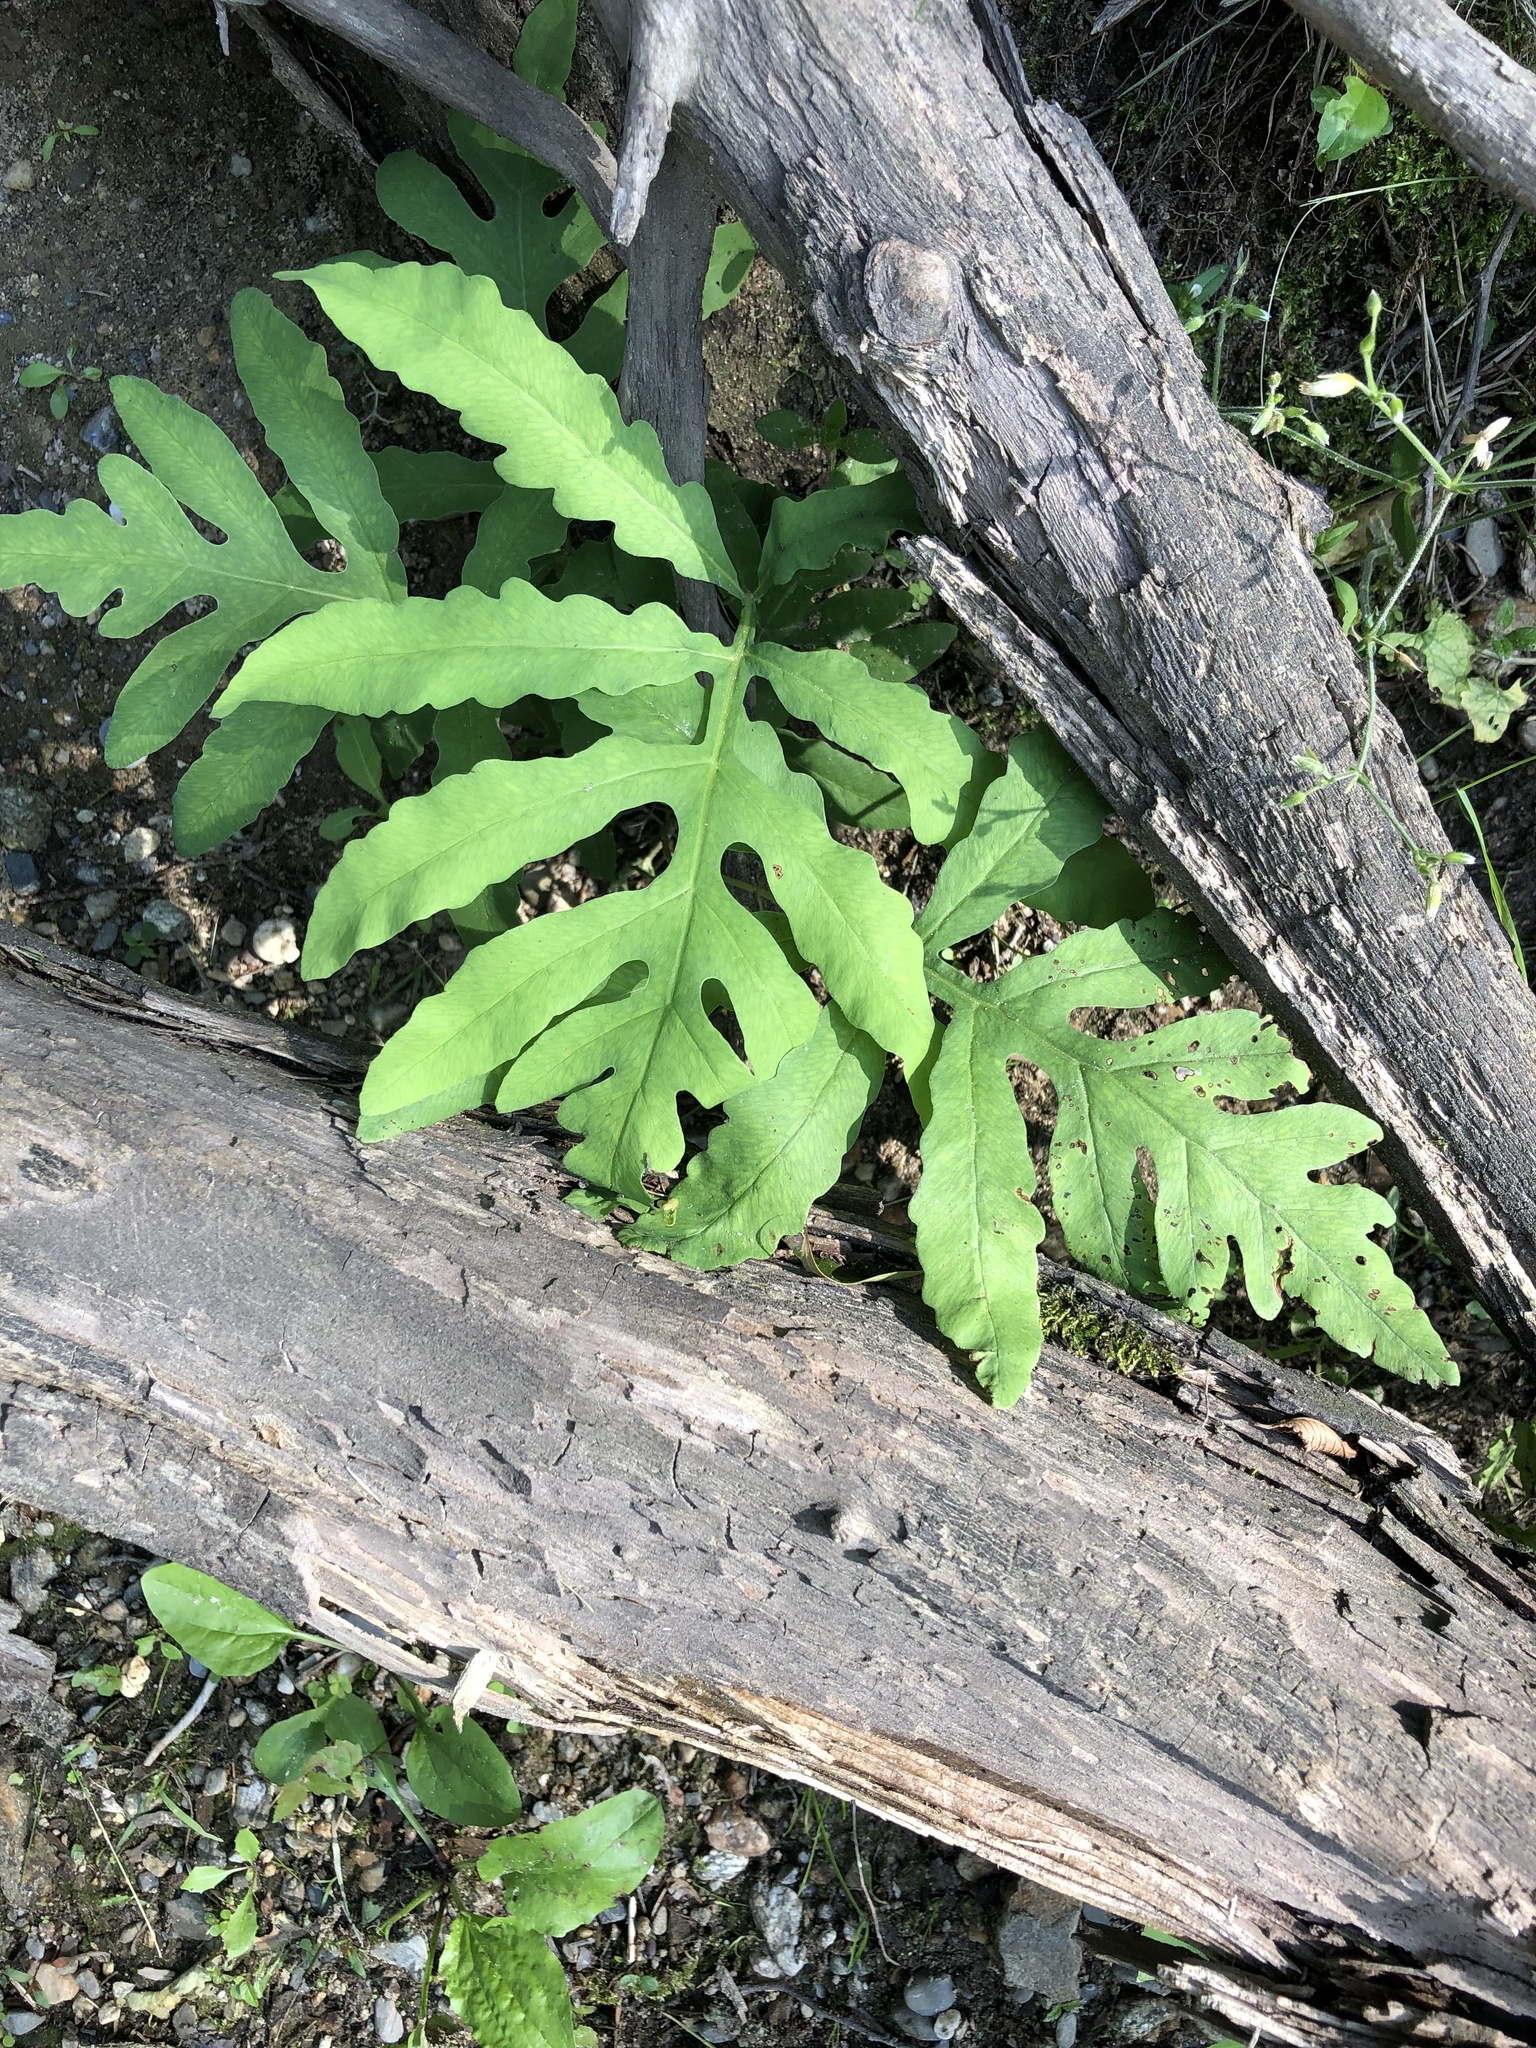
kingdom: Plantae
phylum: Tracheophyta
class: Polypodiopsida
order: Polypodiales
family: Onocleaceae
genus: Onoclea
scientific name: Onoclea sensibilis
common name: Sensitive fern
